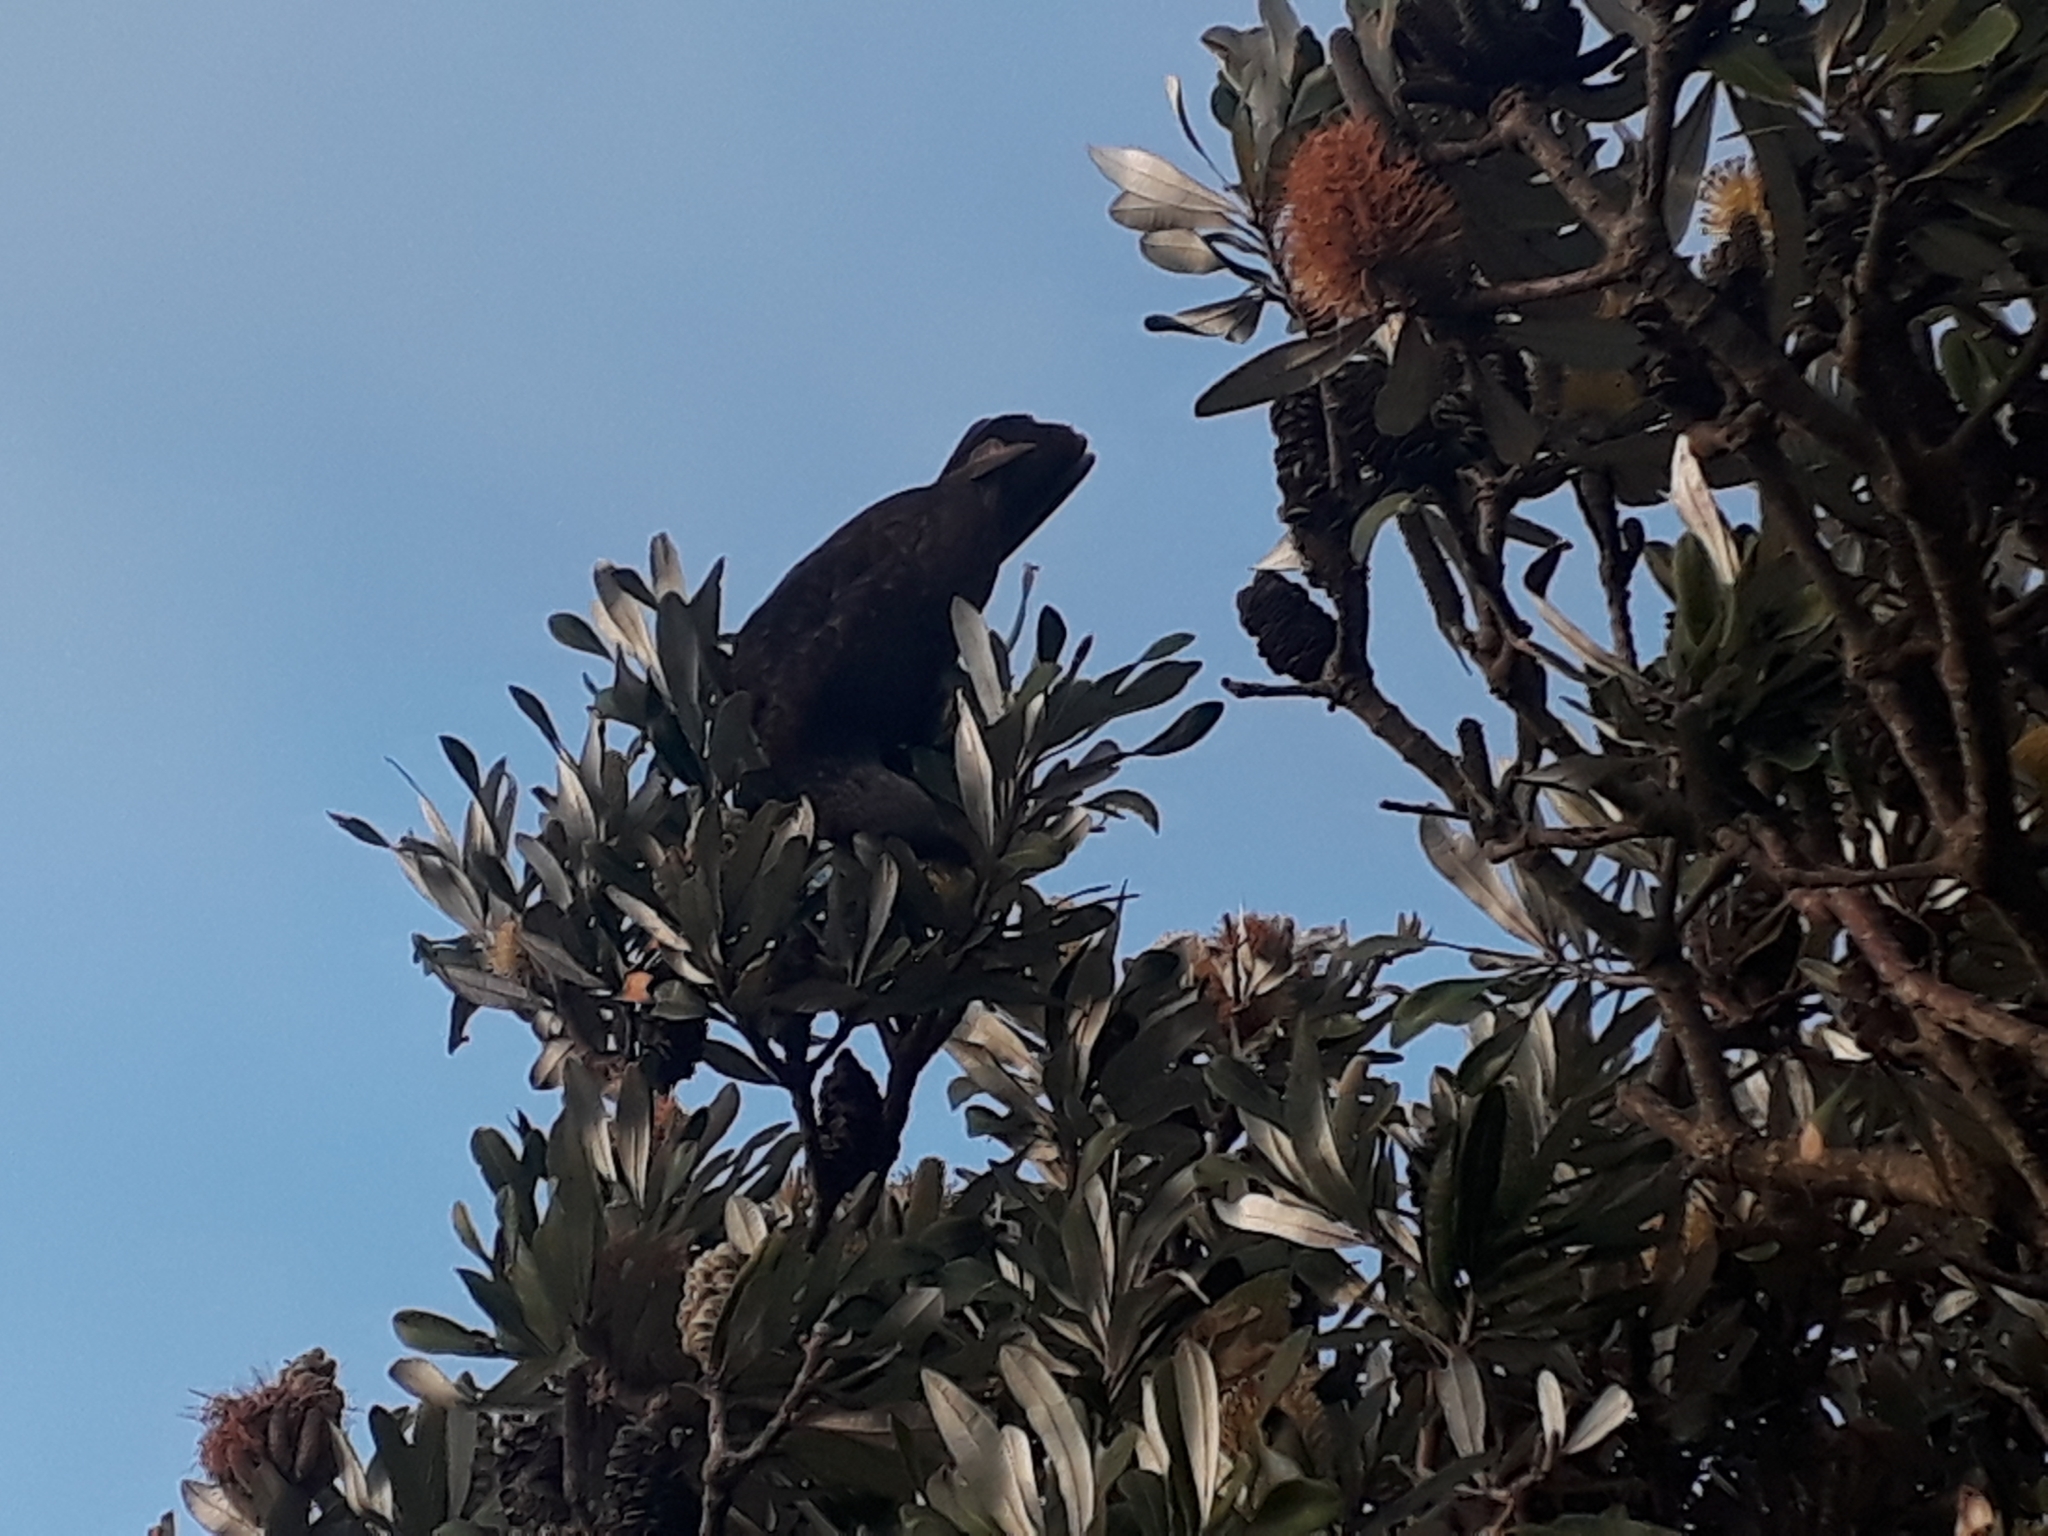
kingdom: Animalia
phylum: Chordata
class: Aves
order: Psittaciformes
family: Psittacidae
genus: Nestor
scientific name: Nestor meridionalis
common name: New zealand kaka
